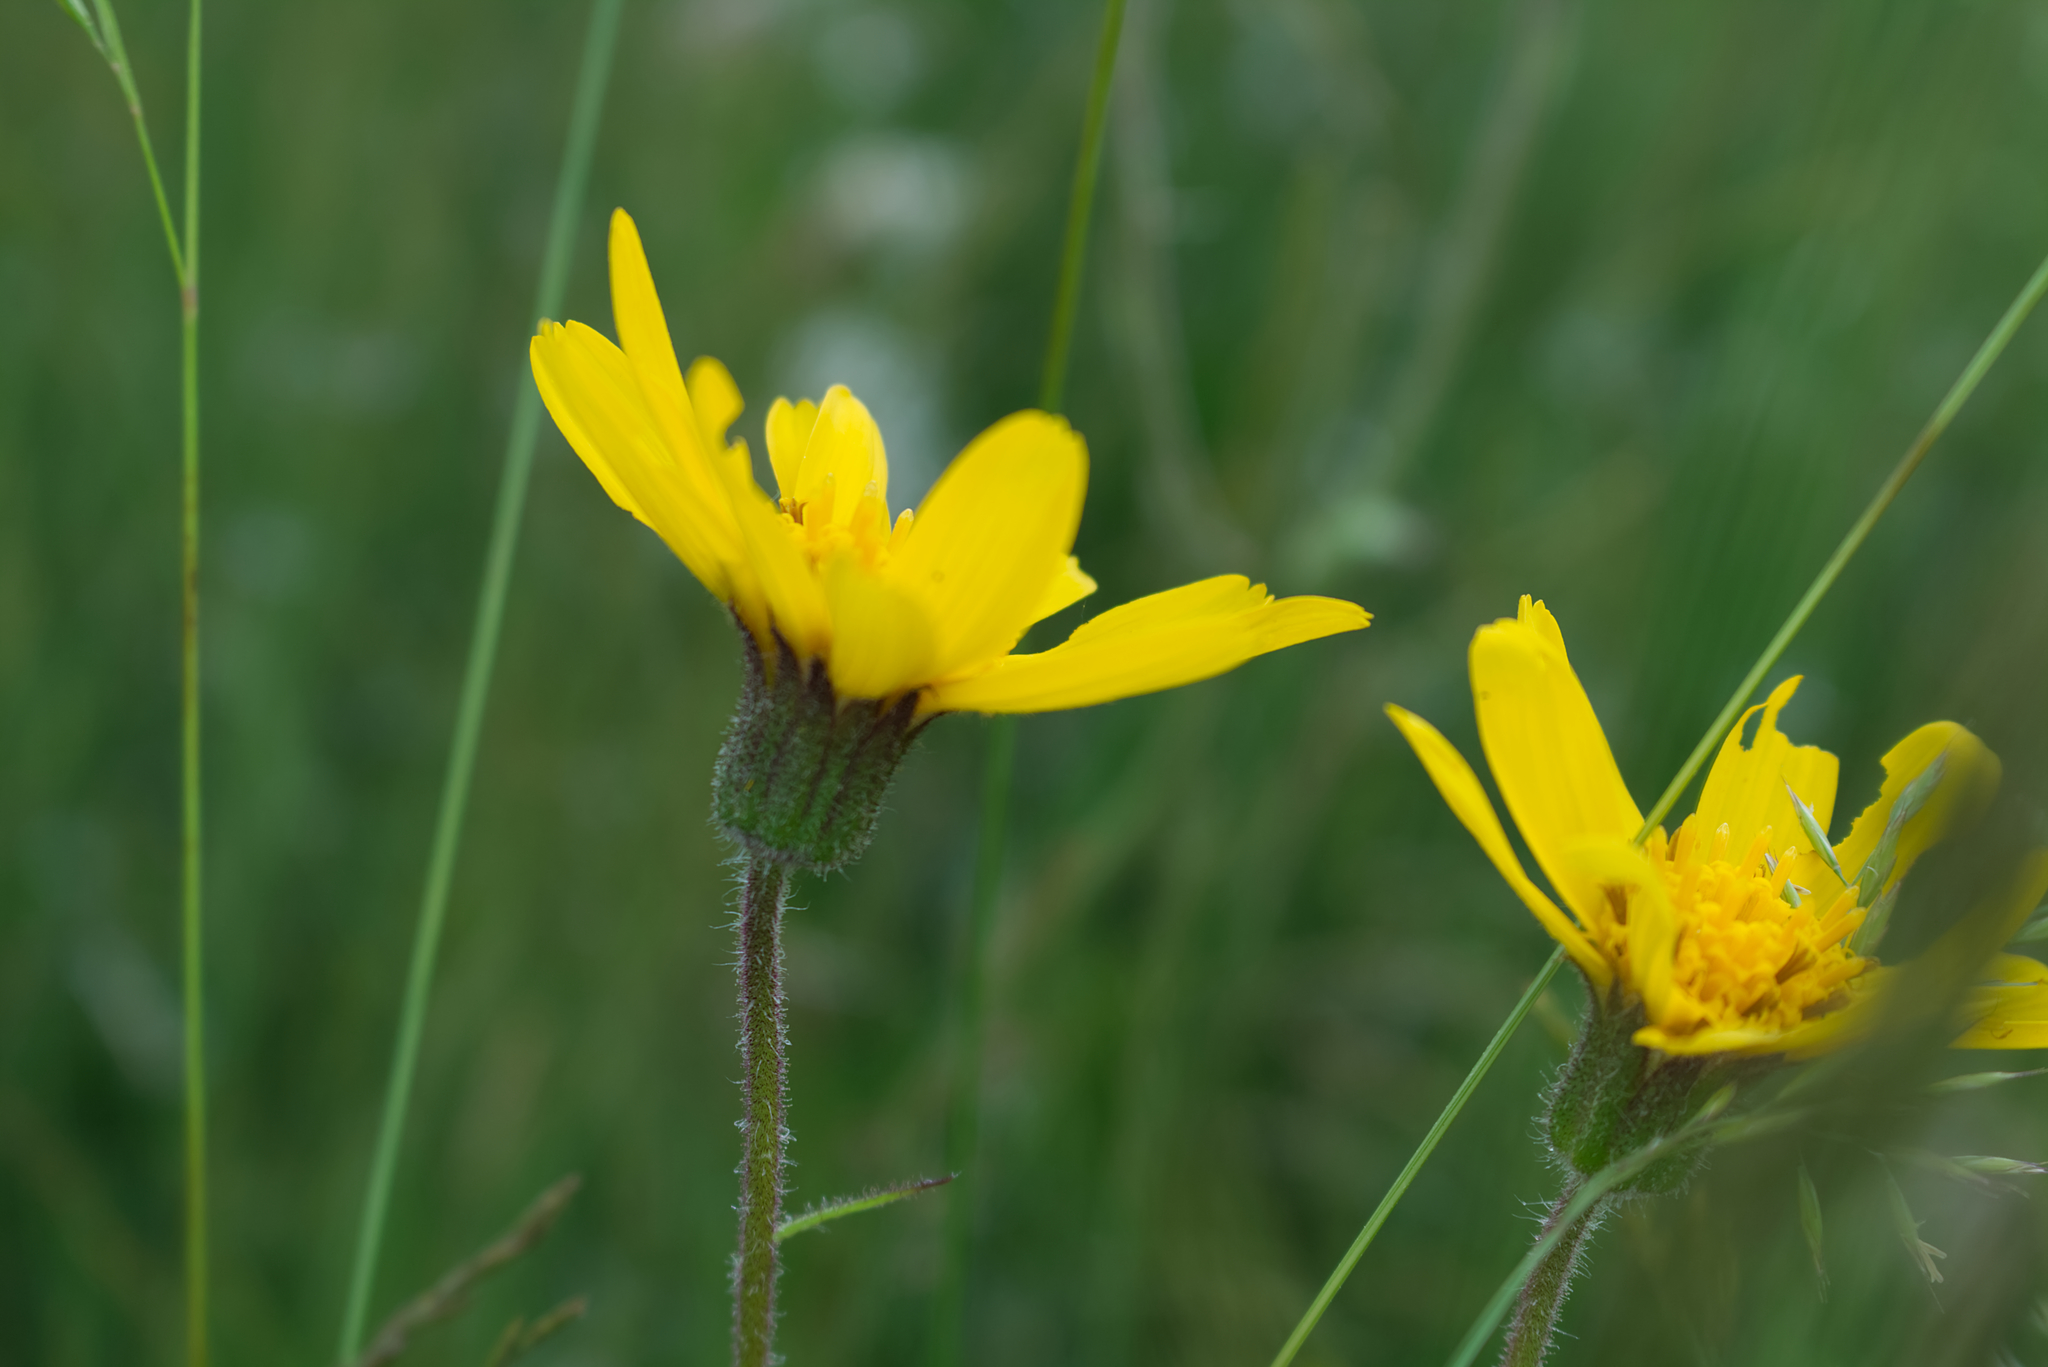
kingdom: Plantae
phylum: Tracheophyta
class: Magnoliopsida
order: Asterales
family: Asteraceae
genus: Arnica
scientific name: Arnica montana
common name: Leopard's bane
